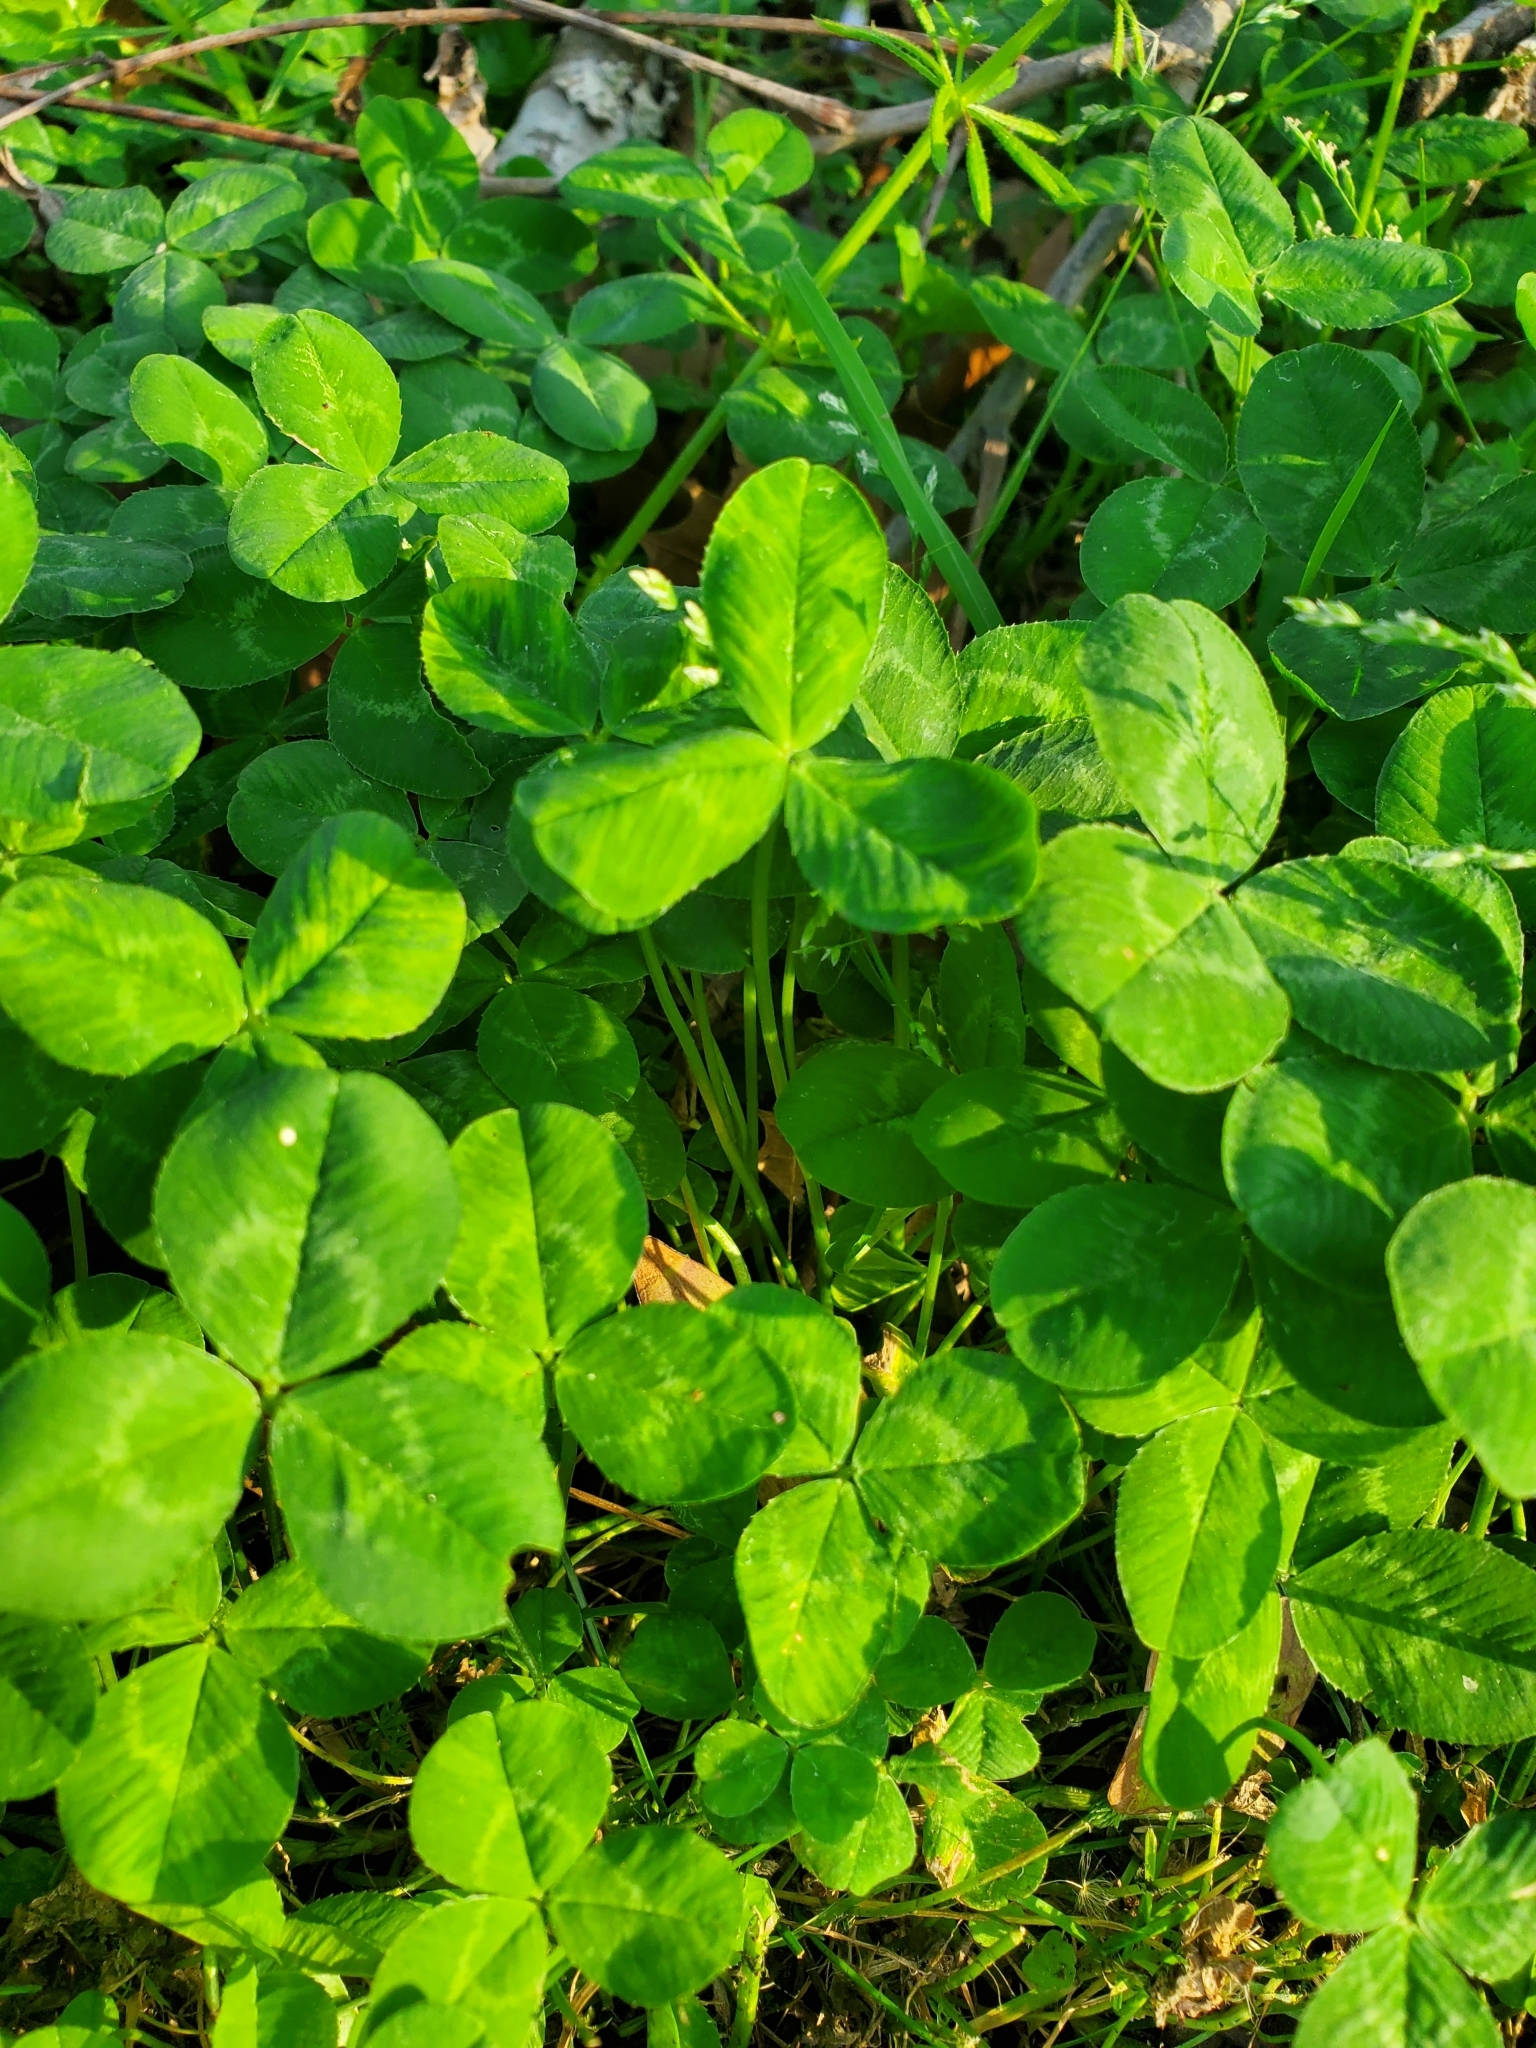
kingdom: Plantae
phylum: Tracheophyta
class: Magnoliopsida
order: Fabales
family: Fabaceae
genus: Trifolium
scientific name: Trifolium repens
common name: White clover
